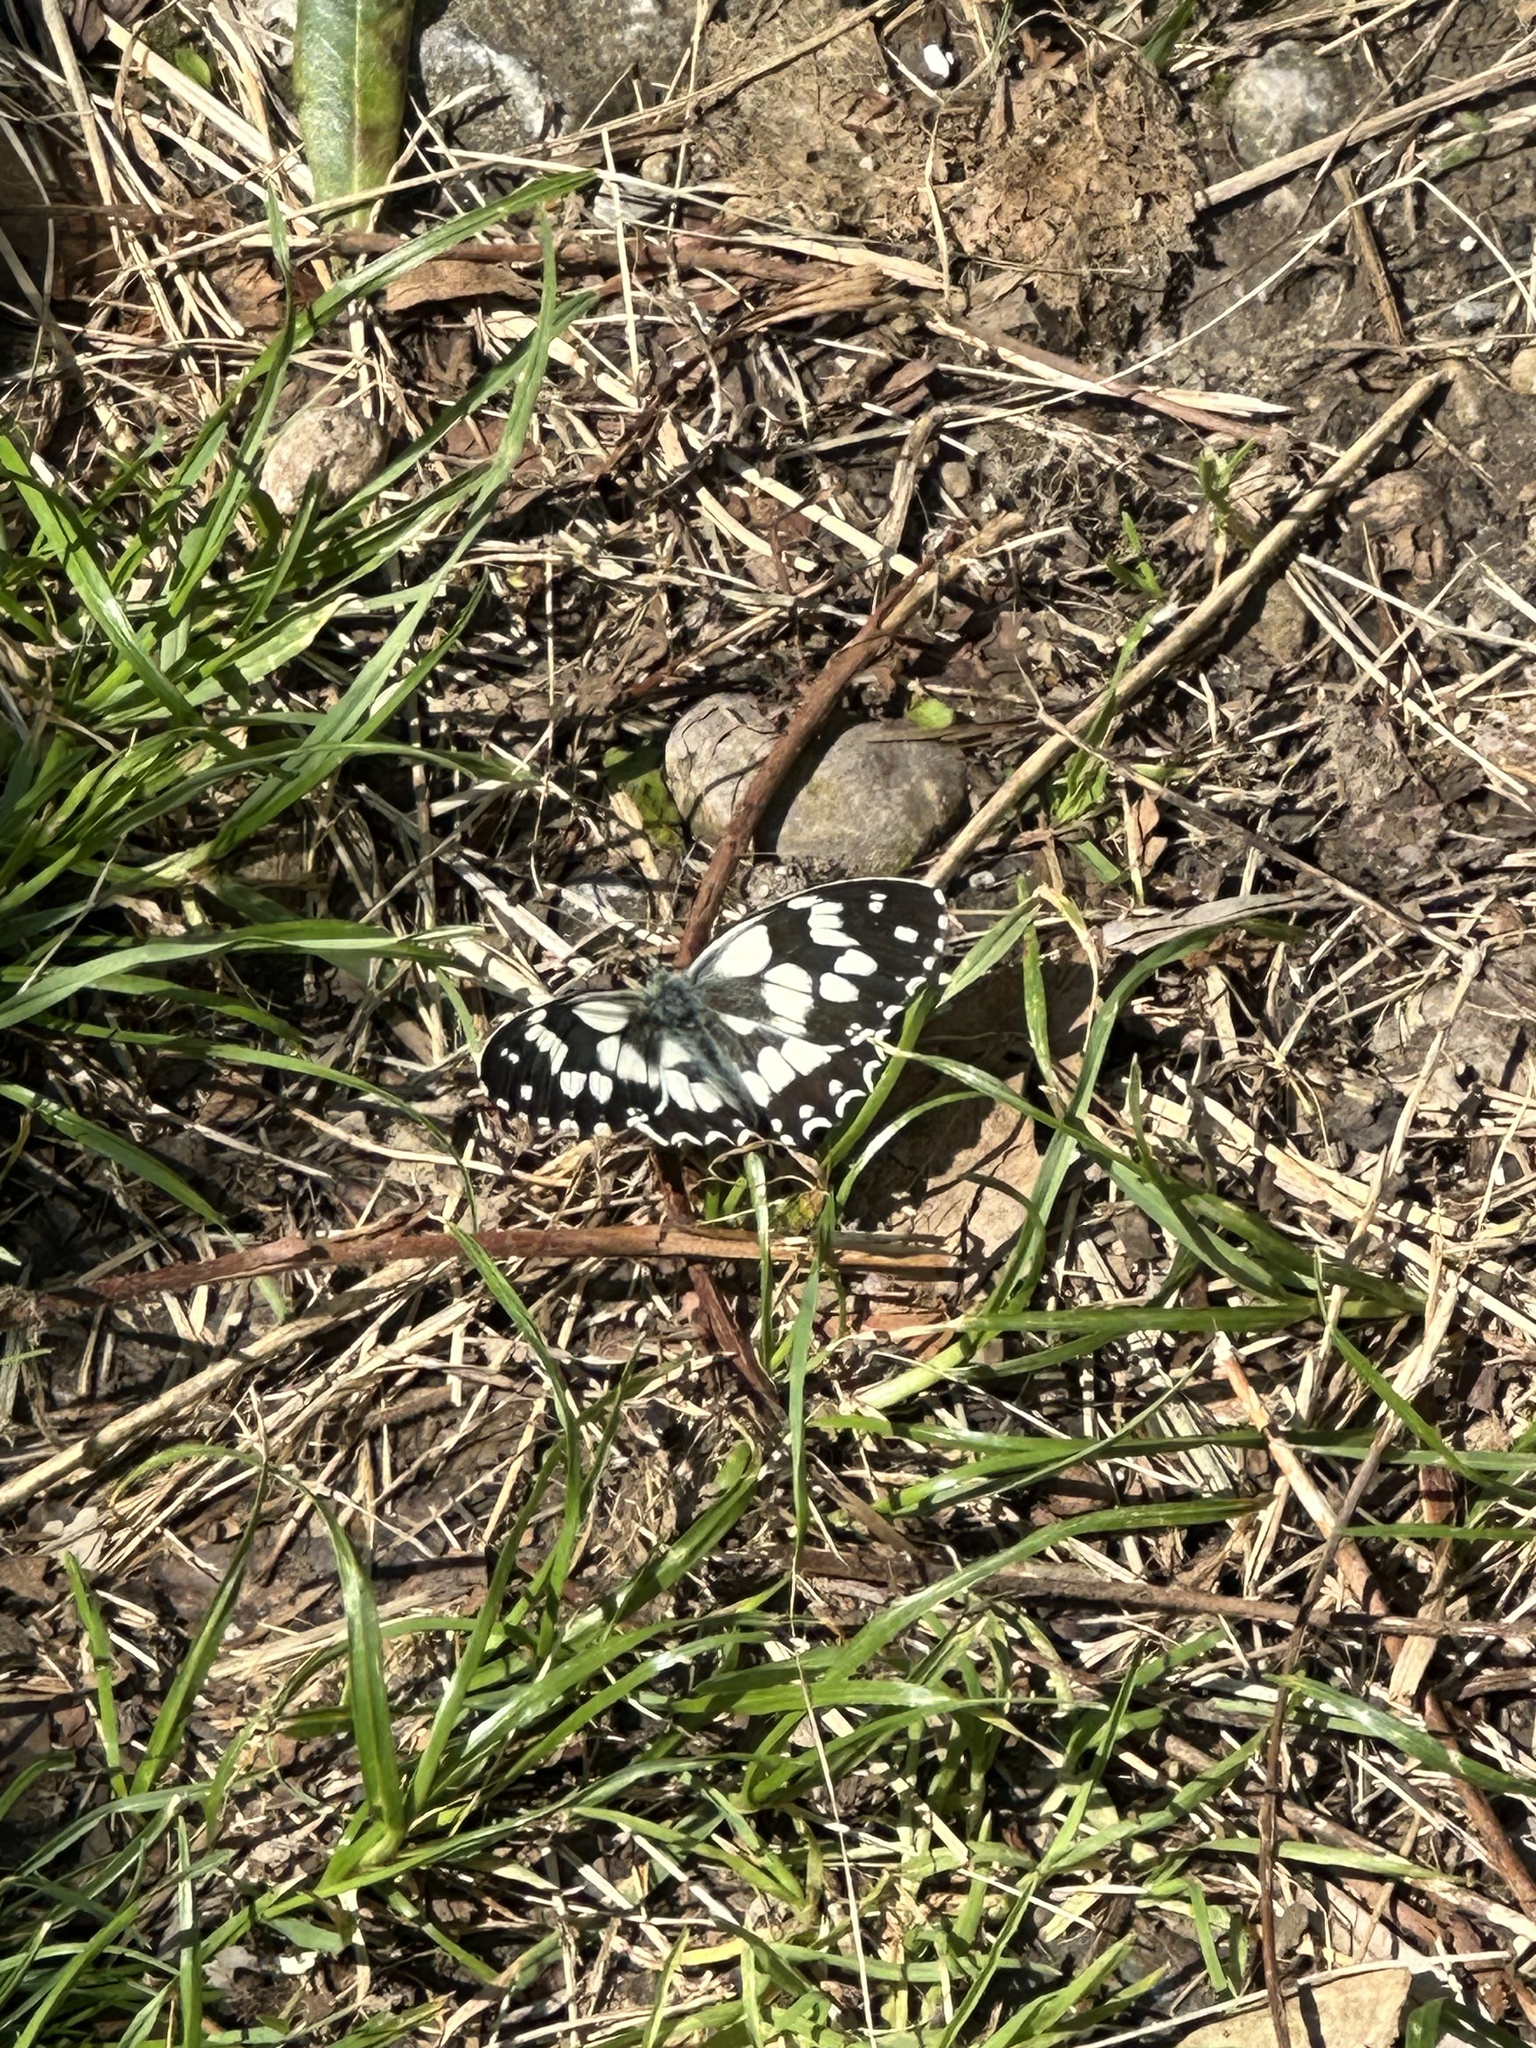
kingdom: Animalia
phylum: Arthropoda
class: Insecta
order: Lepidoptera
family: Nymphalidae
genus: Melanargia
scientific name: Melanargia galathea
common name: Marbled white
